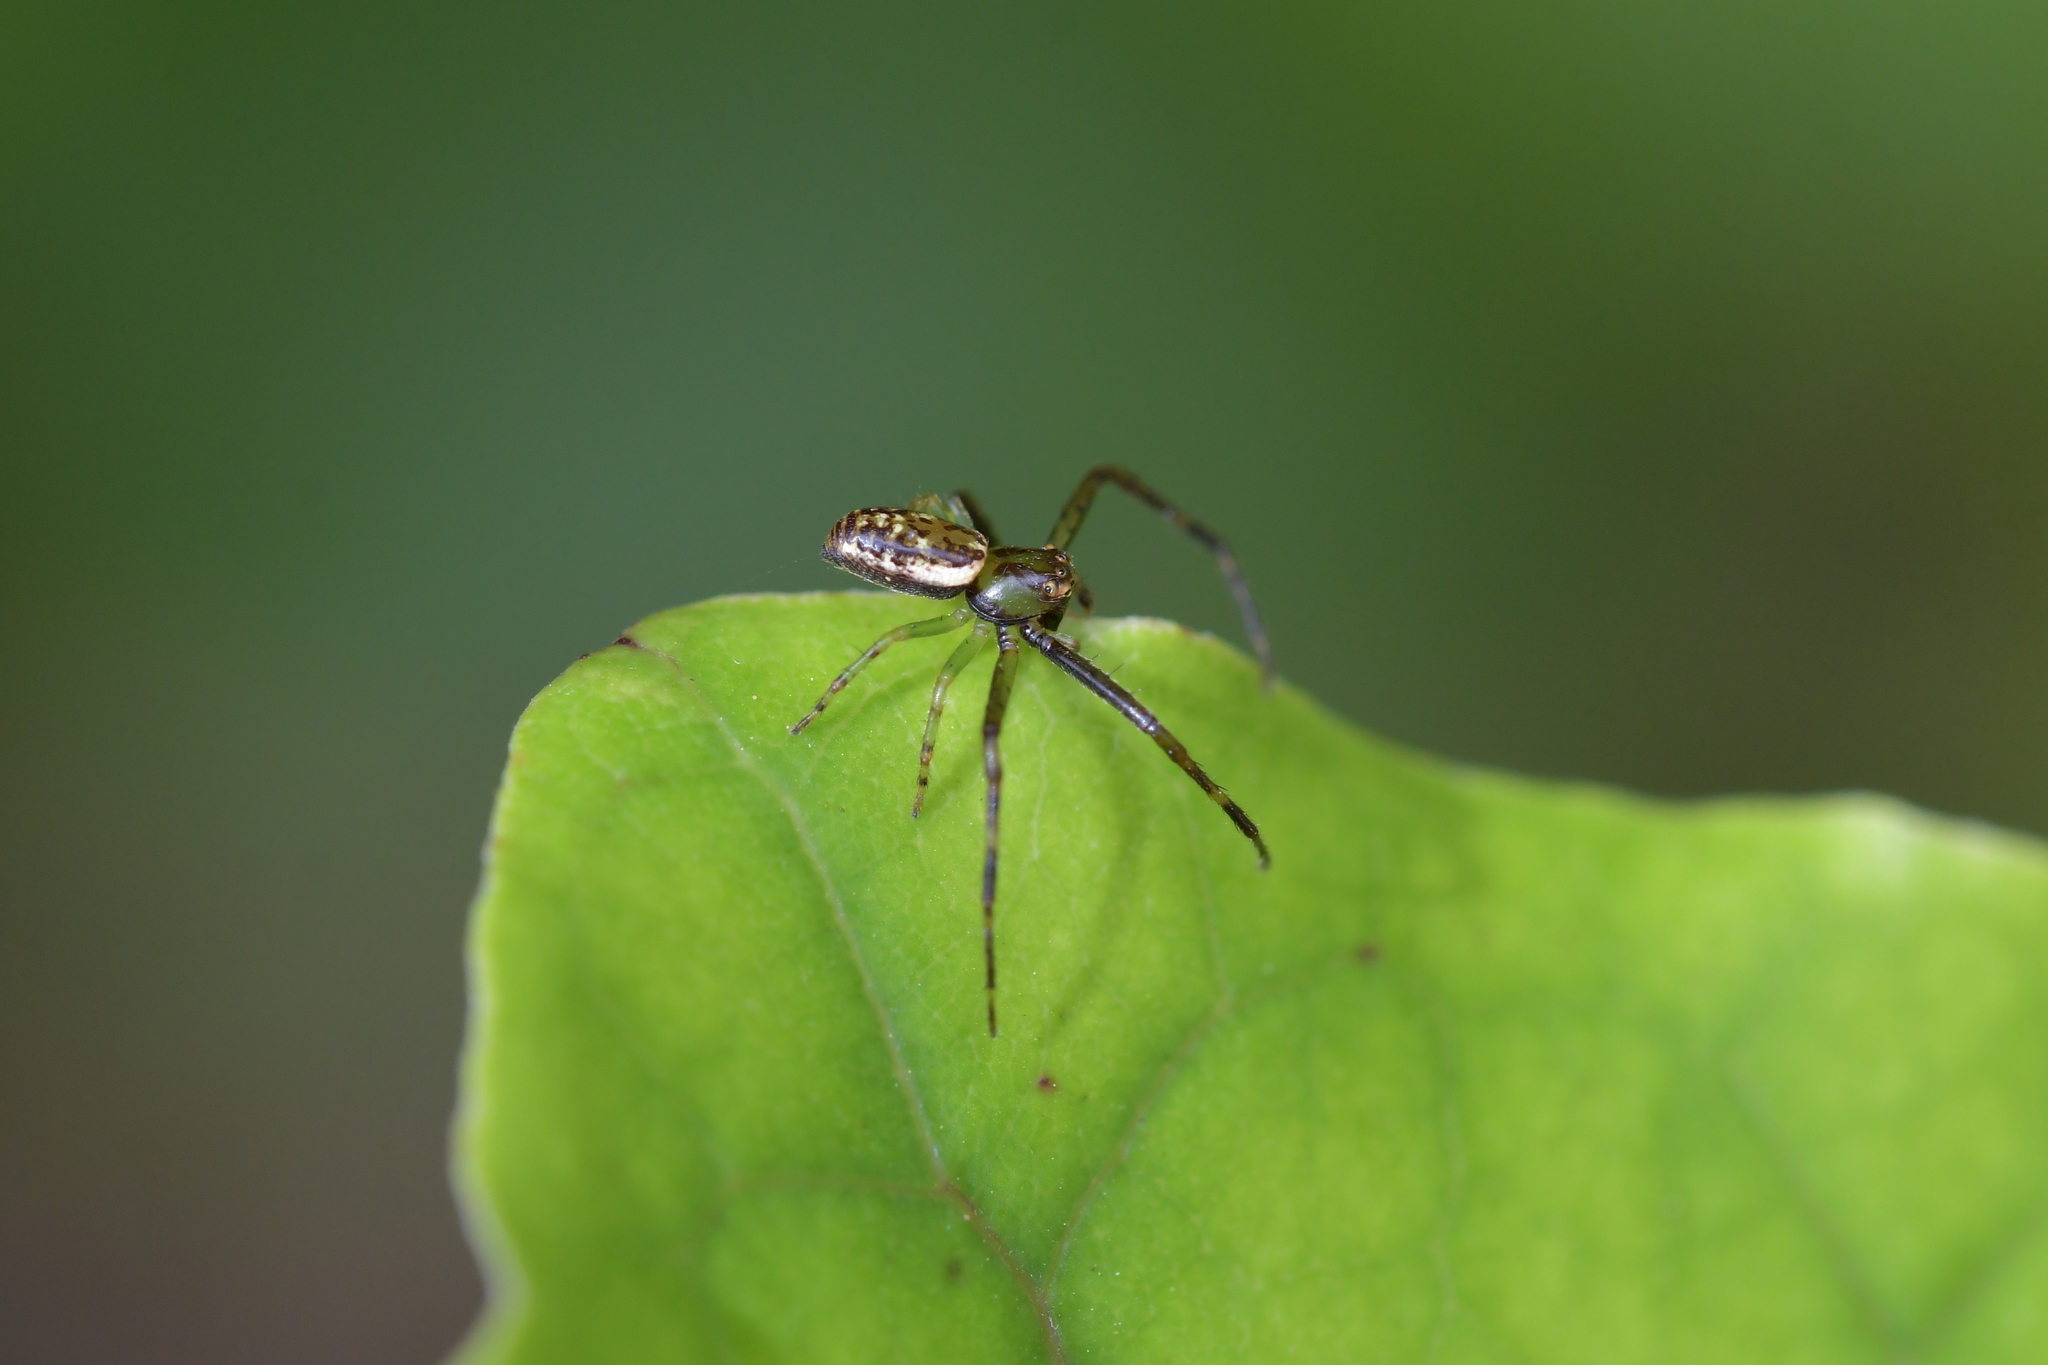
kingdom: Animalia
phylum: Arthropoda
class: Arachnida
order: Araneae
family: Thomisidae
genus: Diaea
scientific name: Diaea ambara
